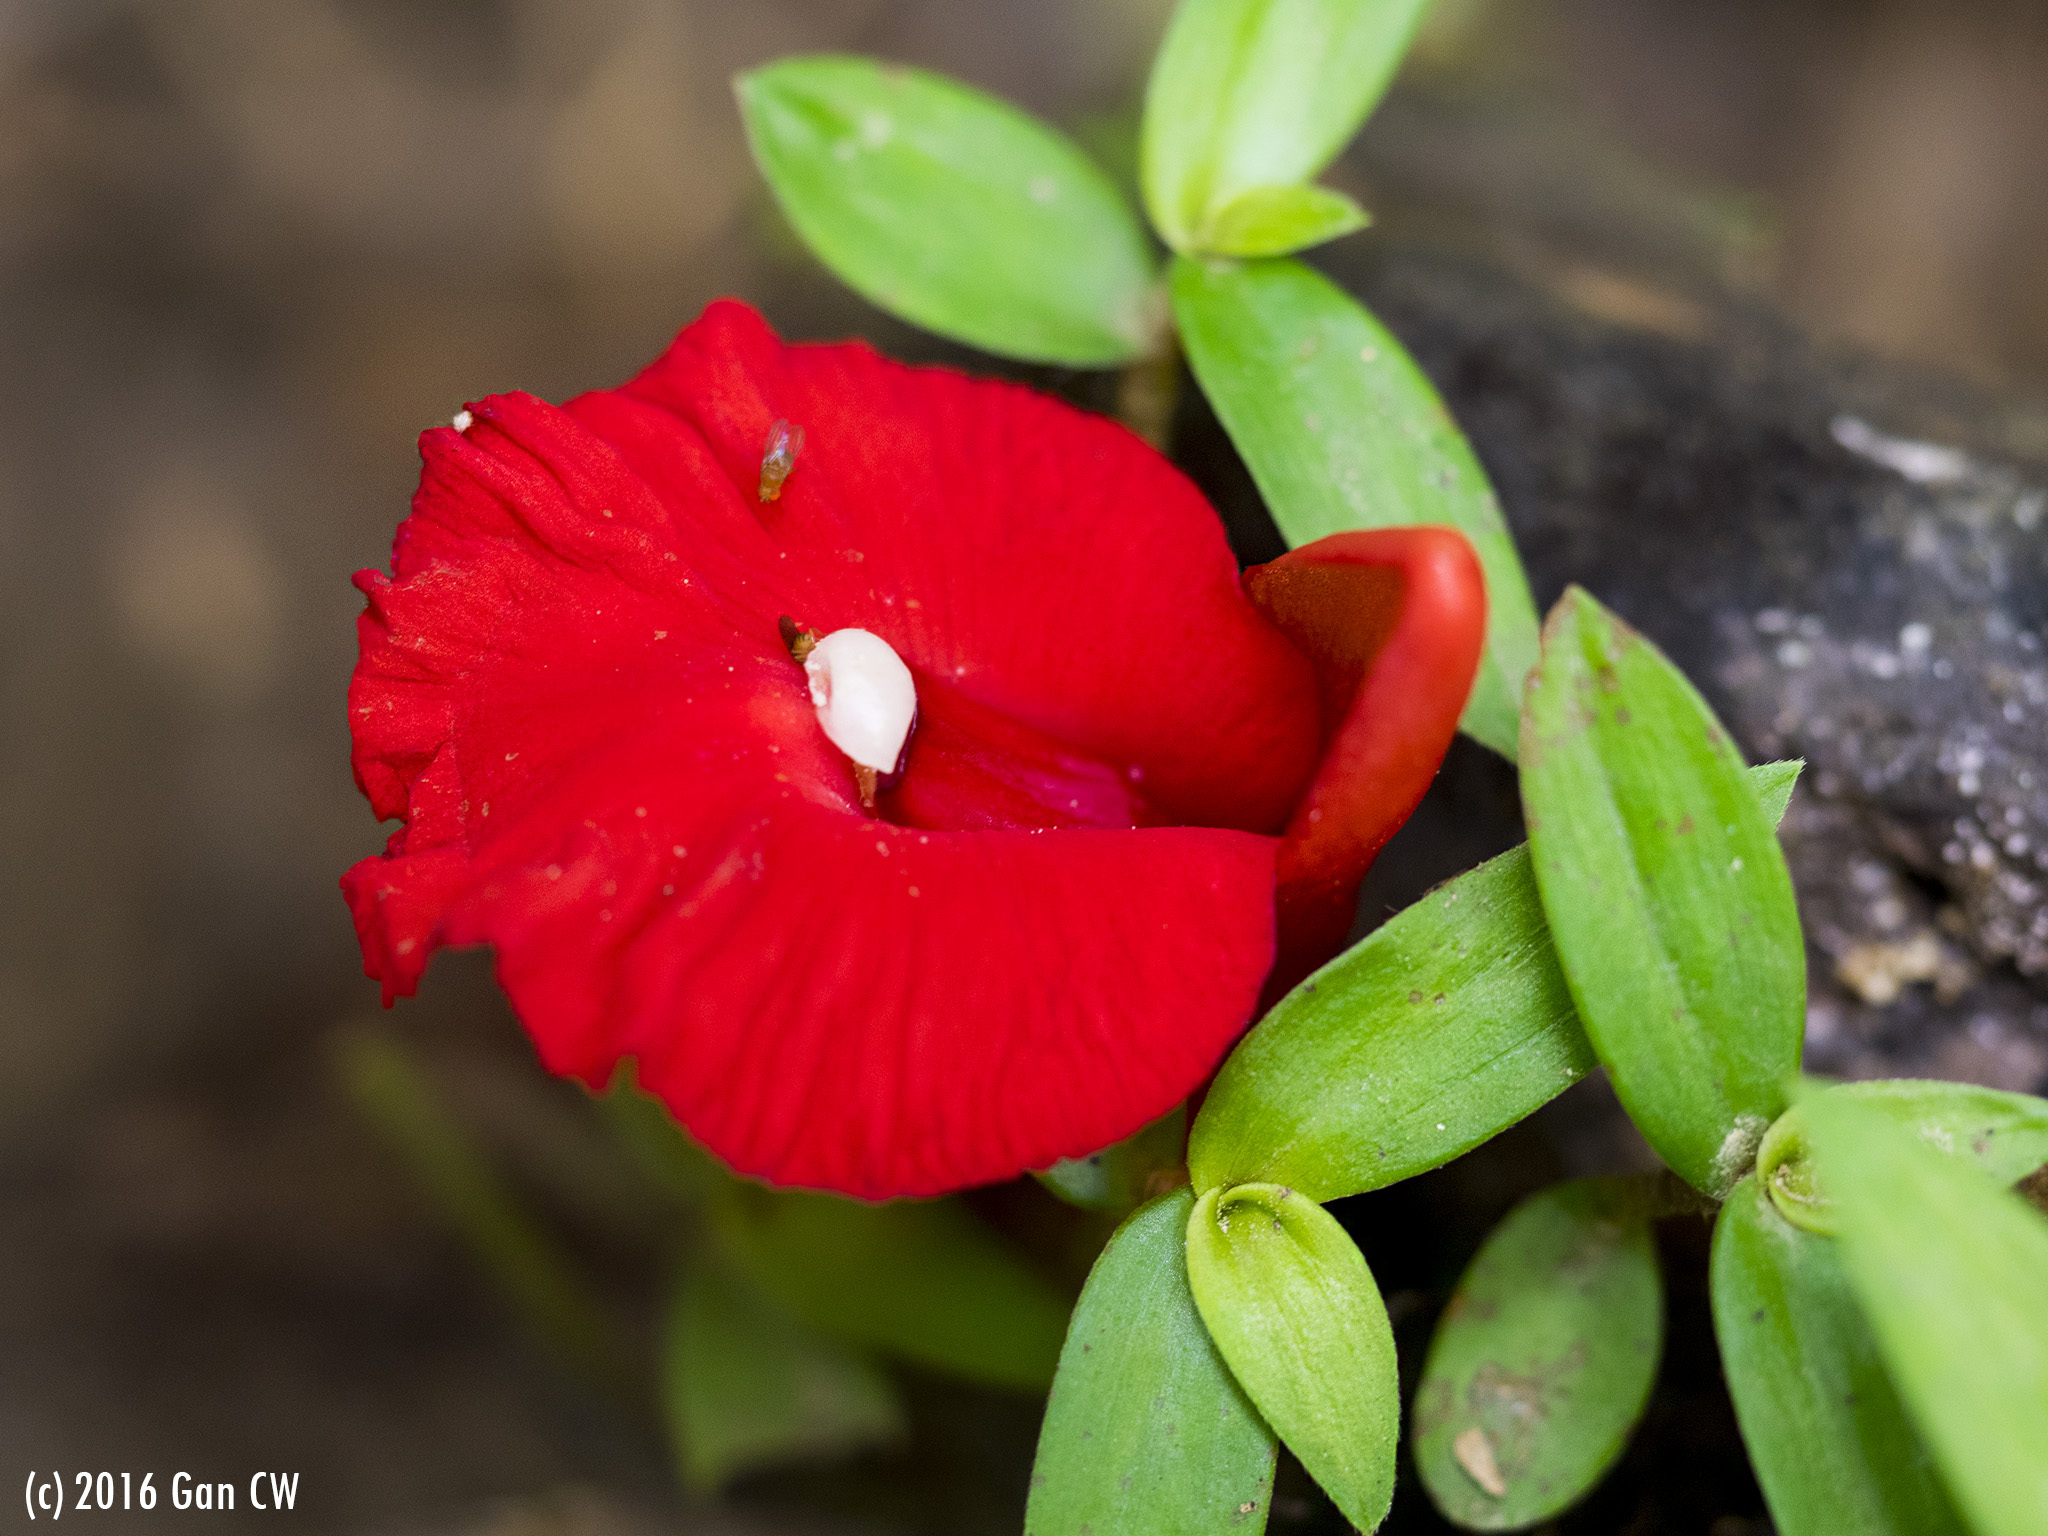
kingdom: Plantae
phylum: Tracheophyta
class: Liliopsida
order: Zingiberales
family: Zingiberaceae
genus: Etlingera
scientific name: Etlingera brevilabrum
